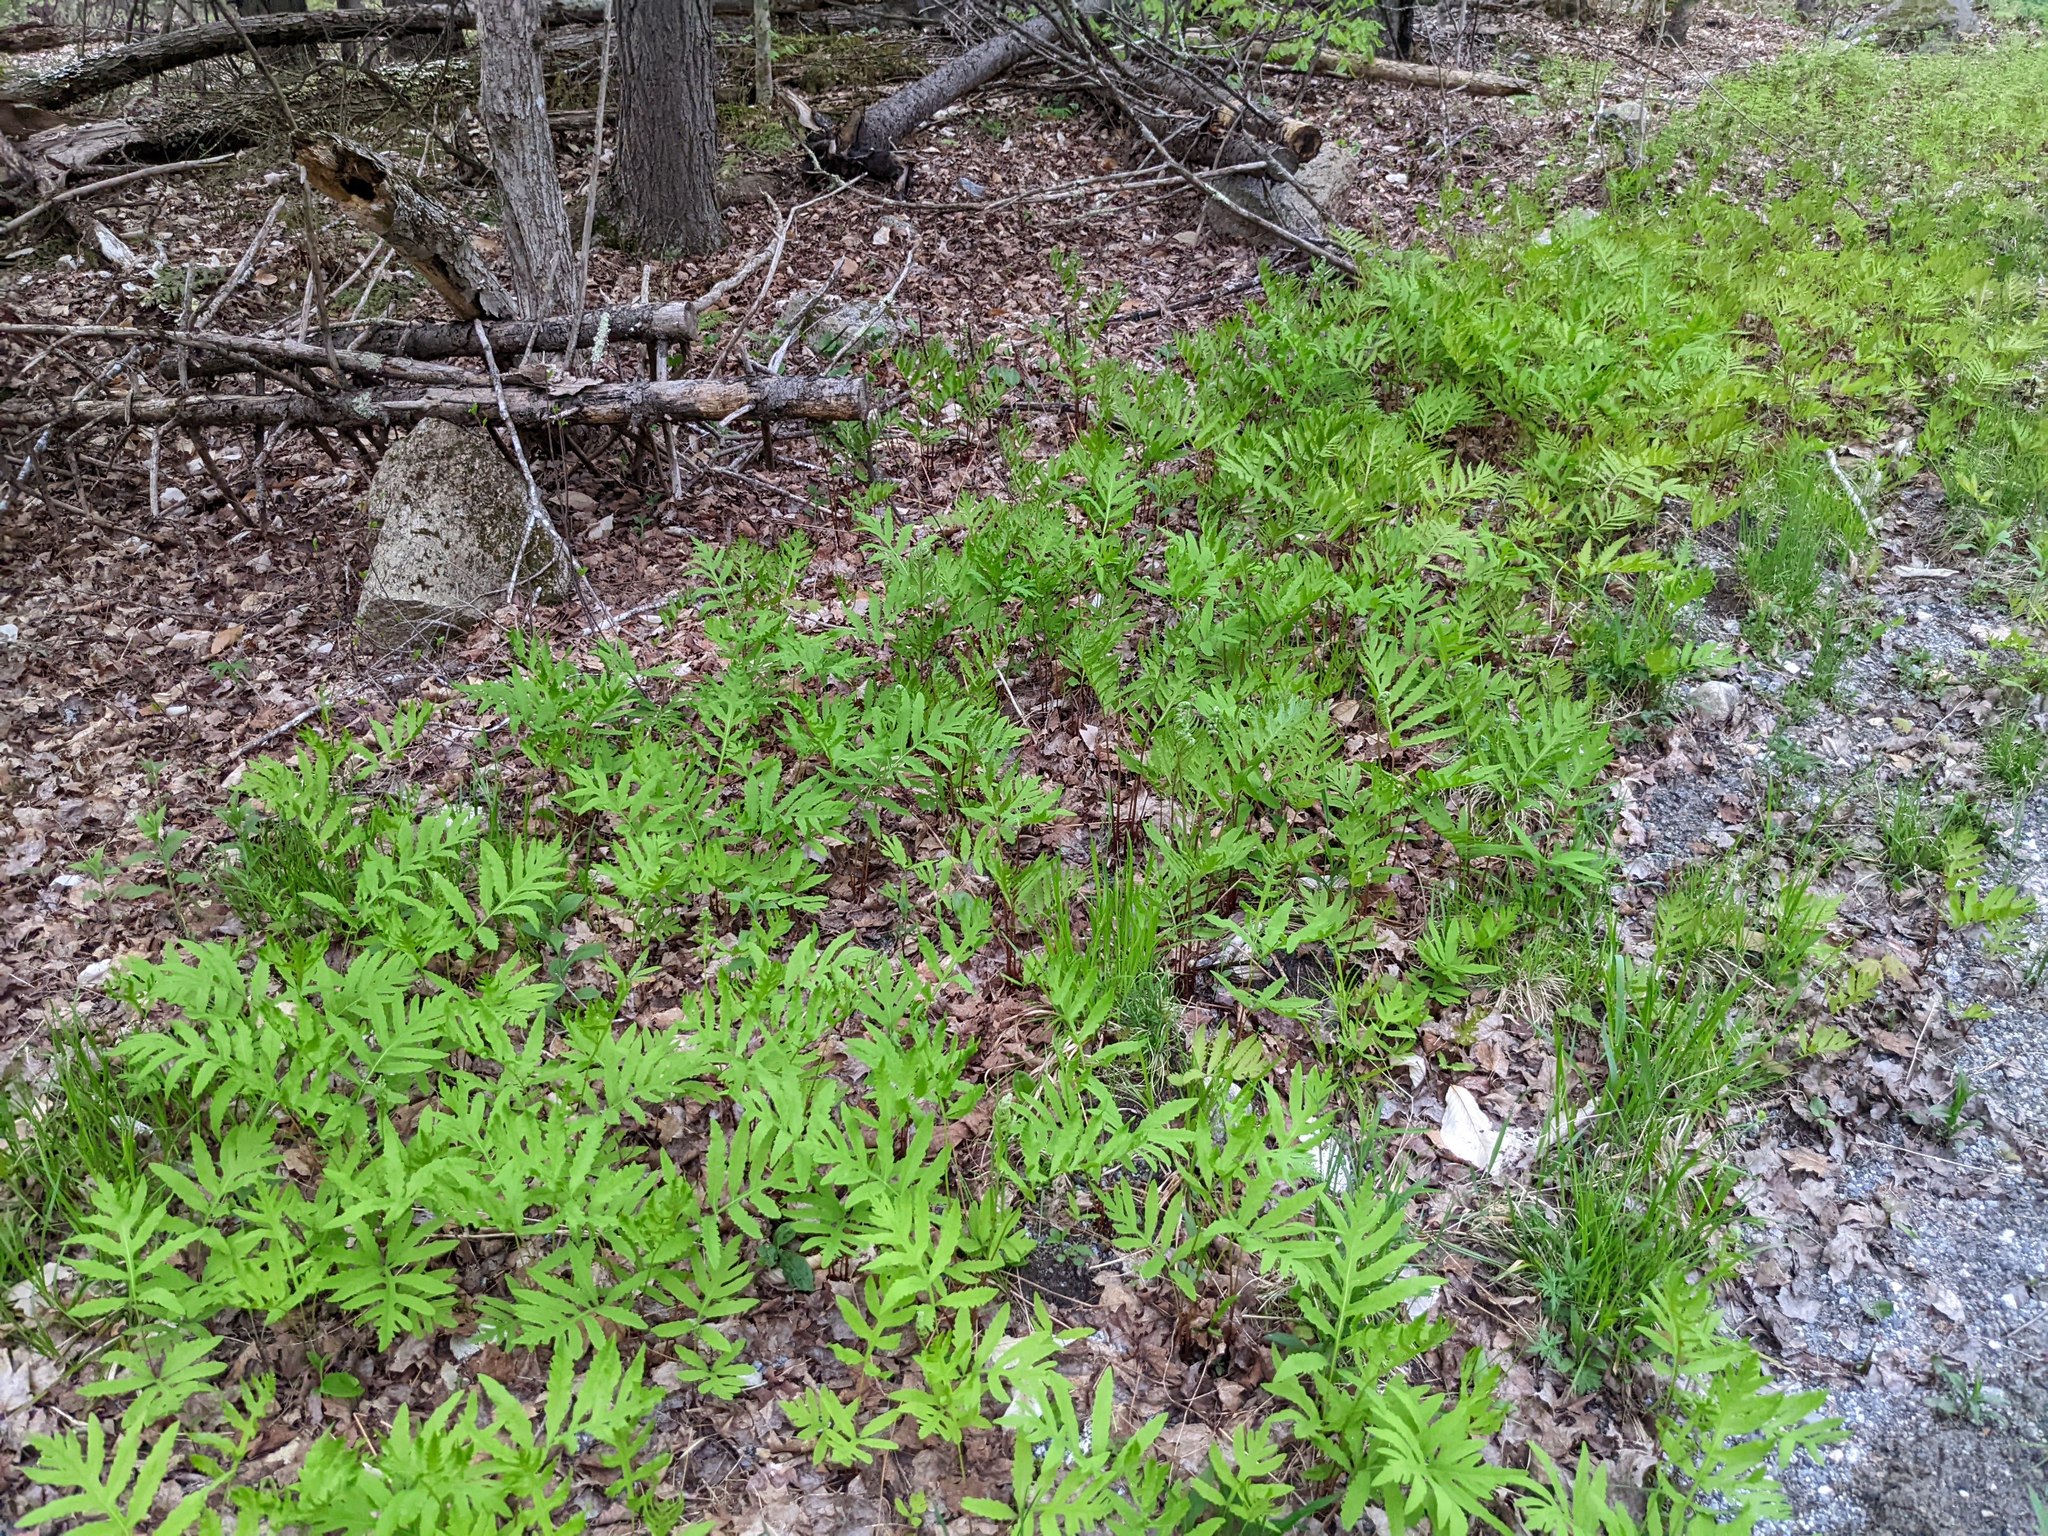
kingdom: Plantae
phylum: Tracheophyta
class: Polypodiopsida
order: Polypodiales
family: Onocleaceae
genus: Onoclea
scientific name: Onoclea sensibilis
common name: Sensitive fern
